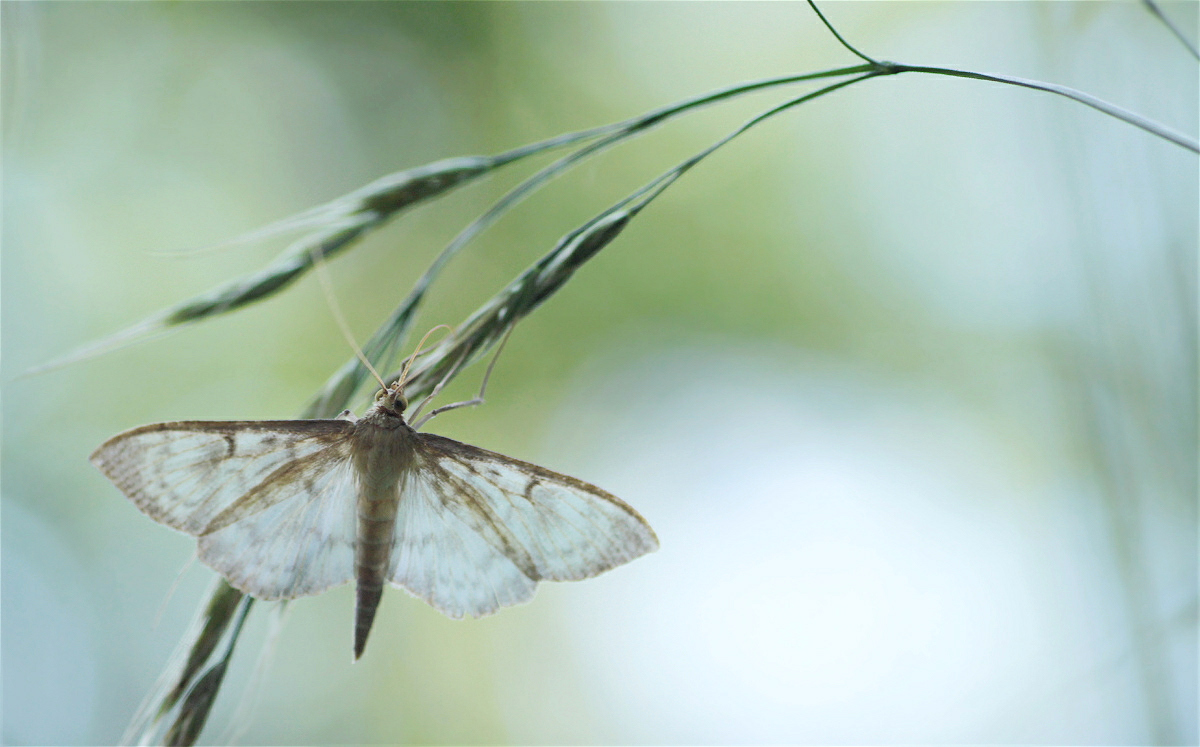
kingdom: Animalia
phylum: Arthropoda
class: Insecta
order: Lepidoptera
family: Crambidae
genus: Patania
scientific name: Patania ruralis
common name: Mother of pearl
